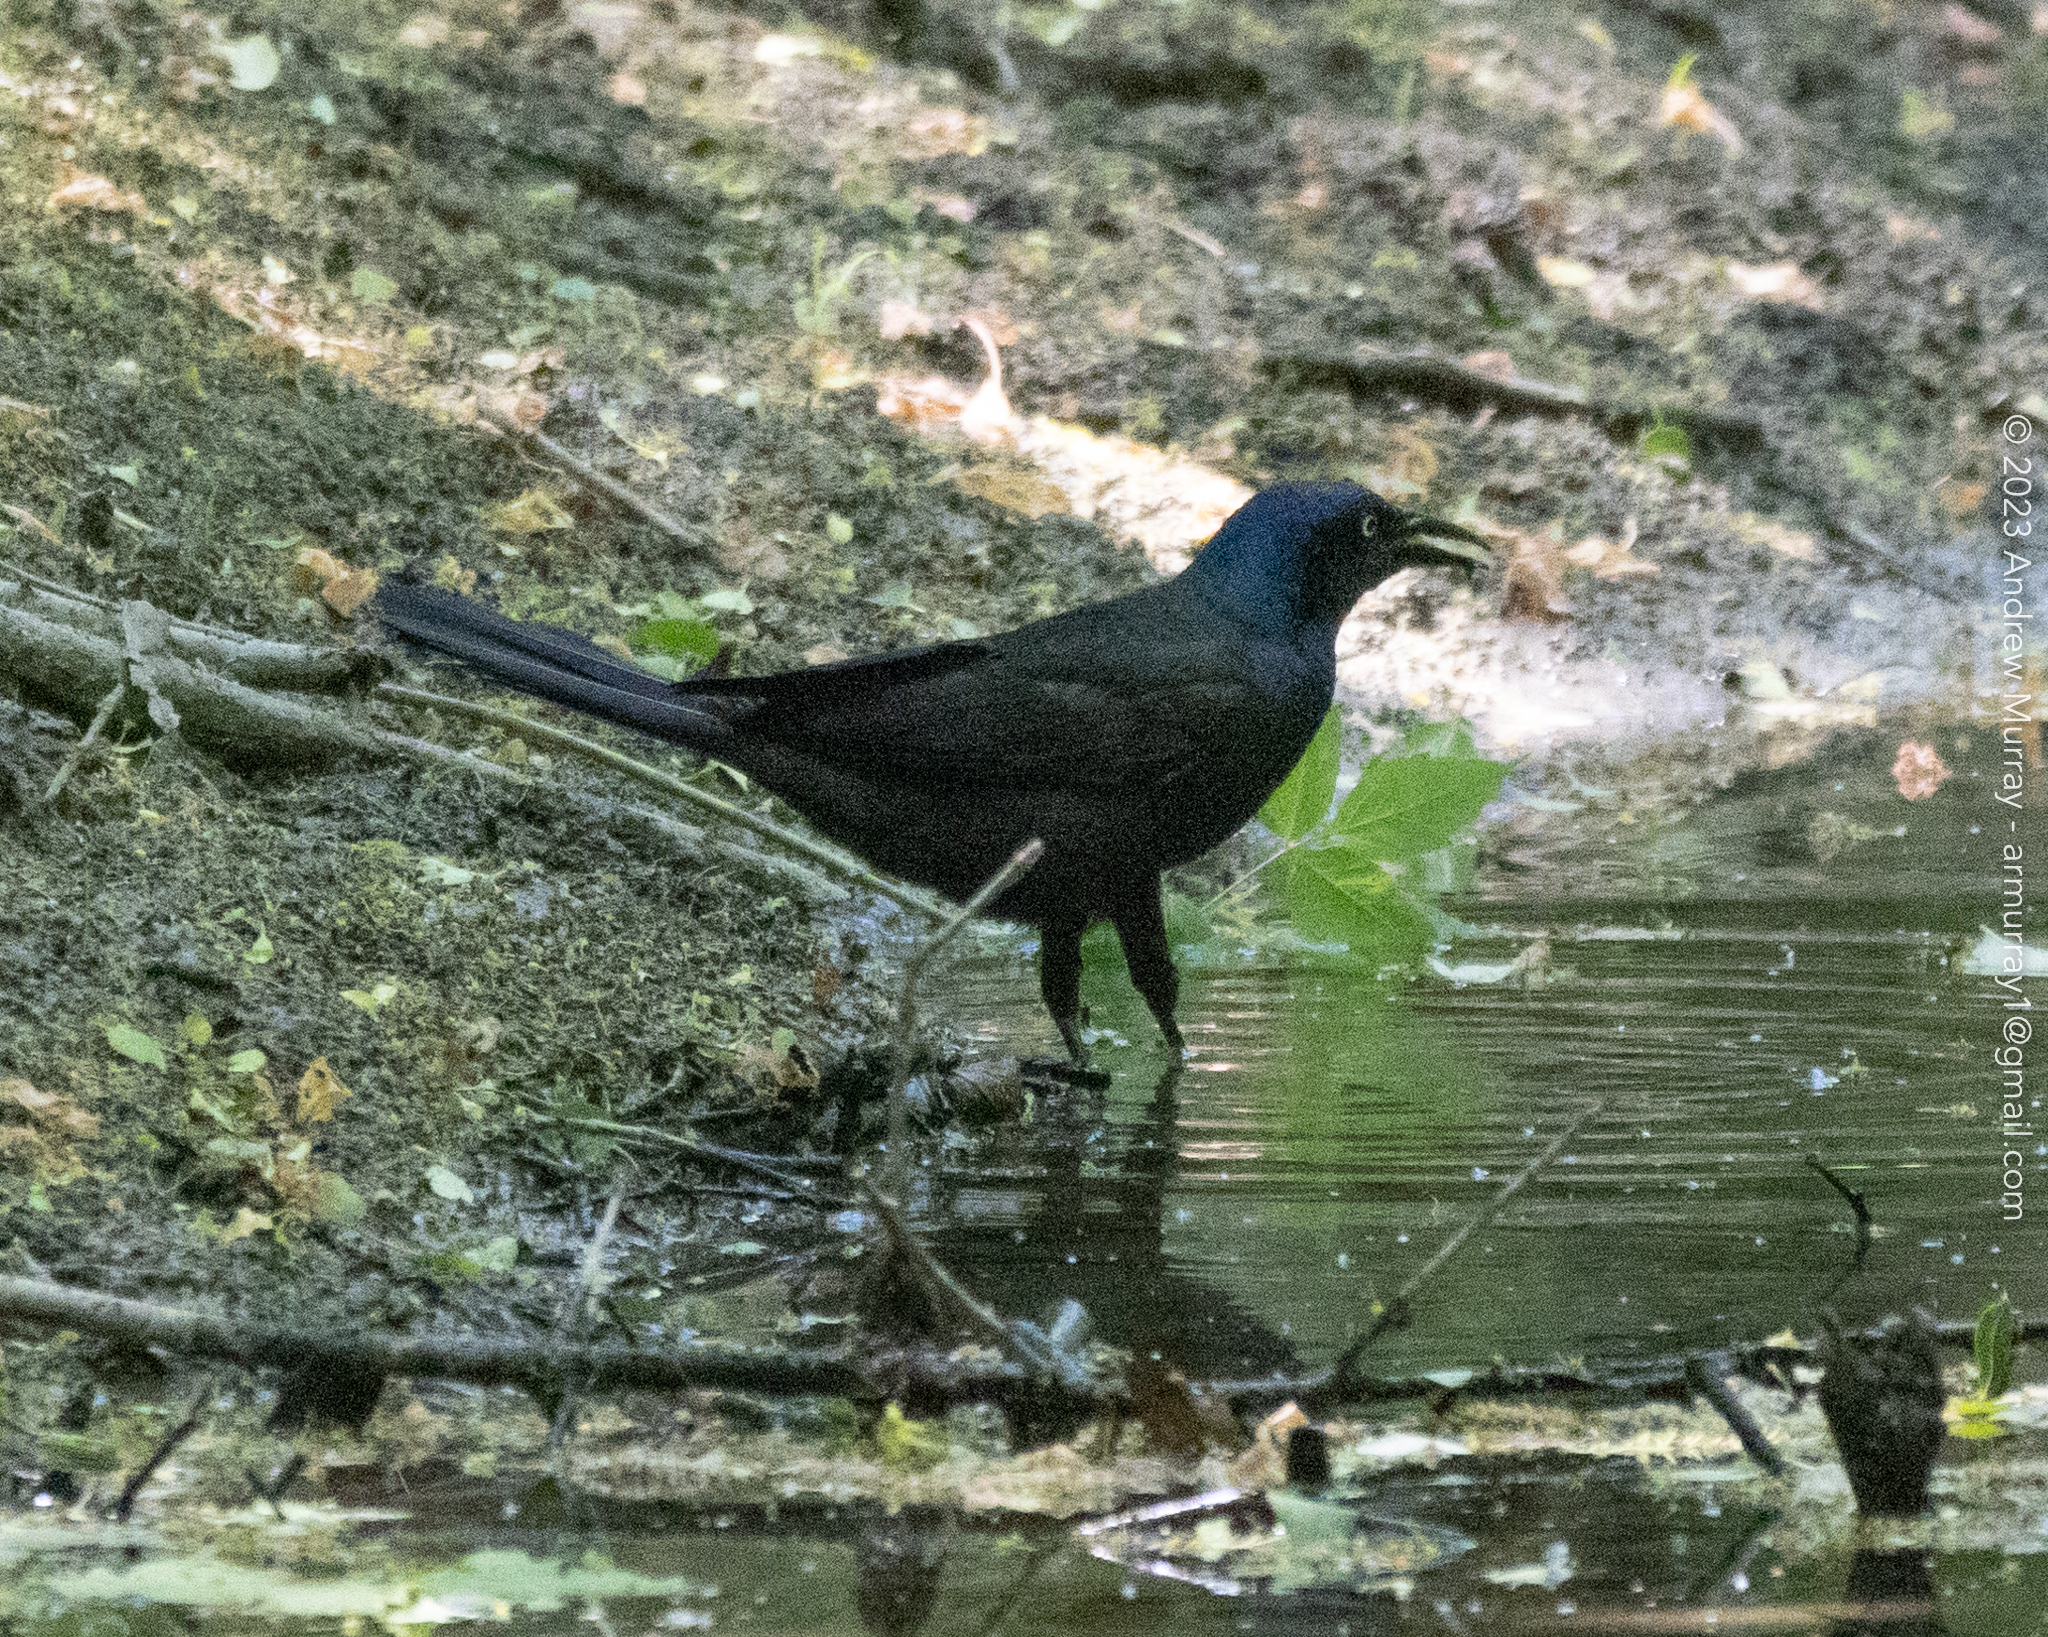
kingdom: Animalia
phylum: Chordata
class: Aves
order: Passeriformes
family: Icteridae
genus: Quiscalus
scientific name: Quiscalus quiscula
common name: Common grackle
